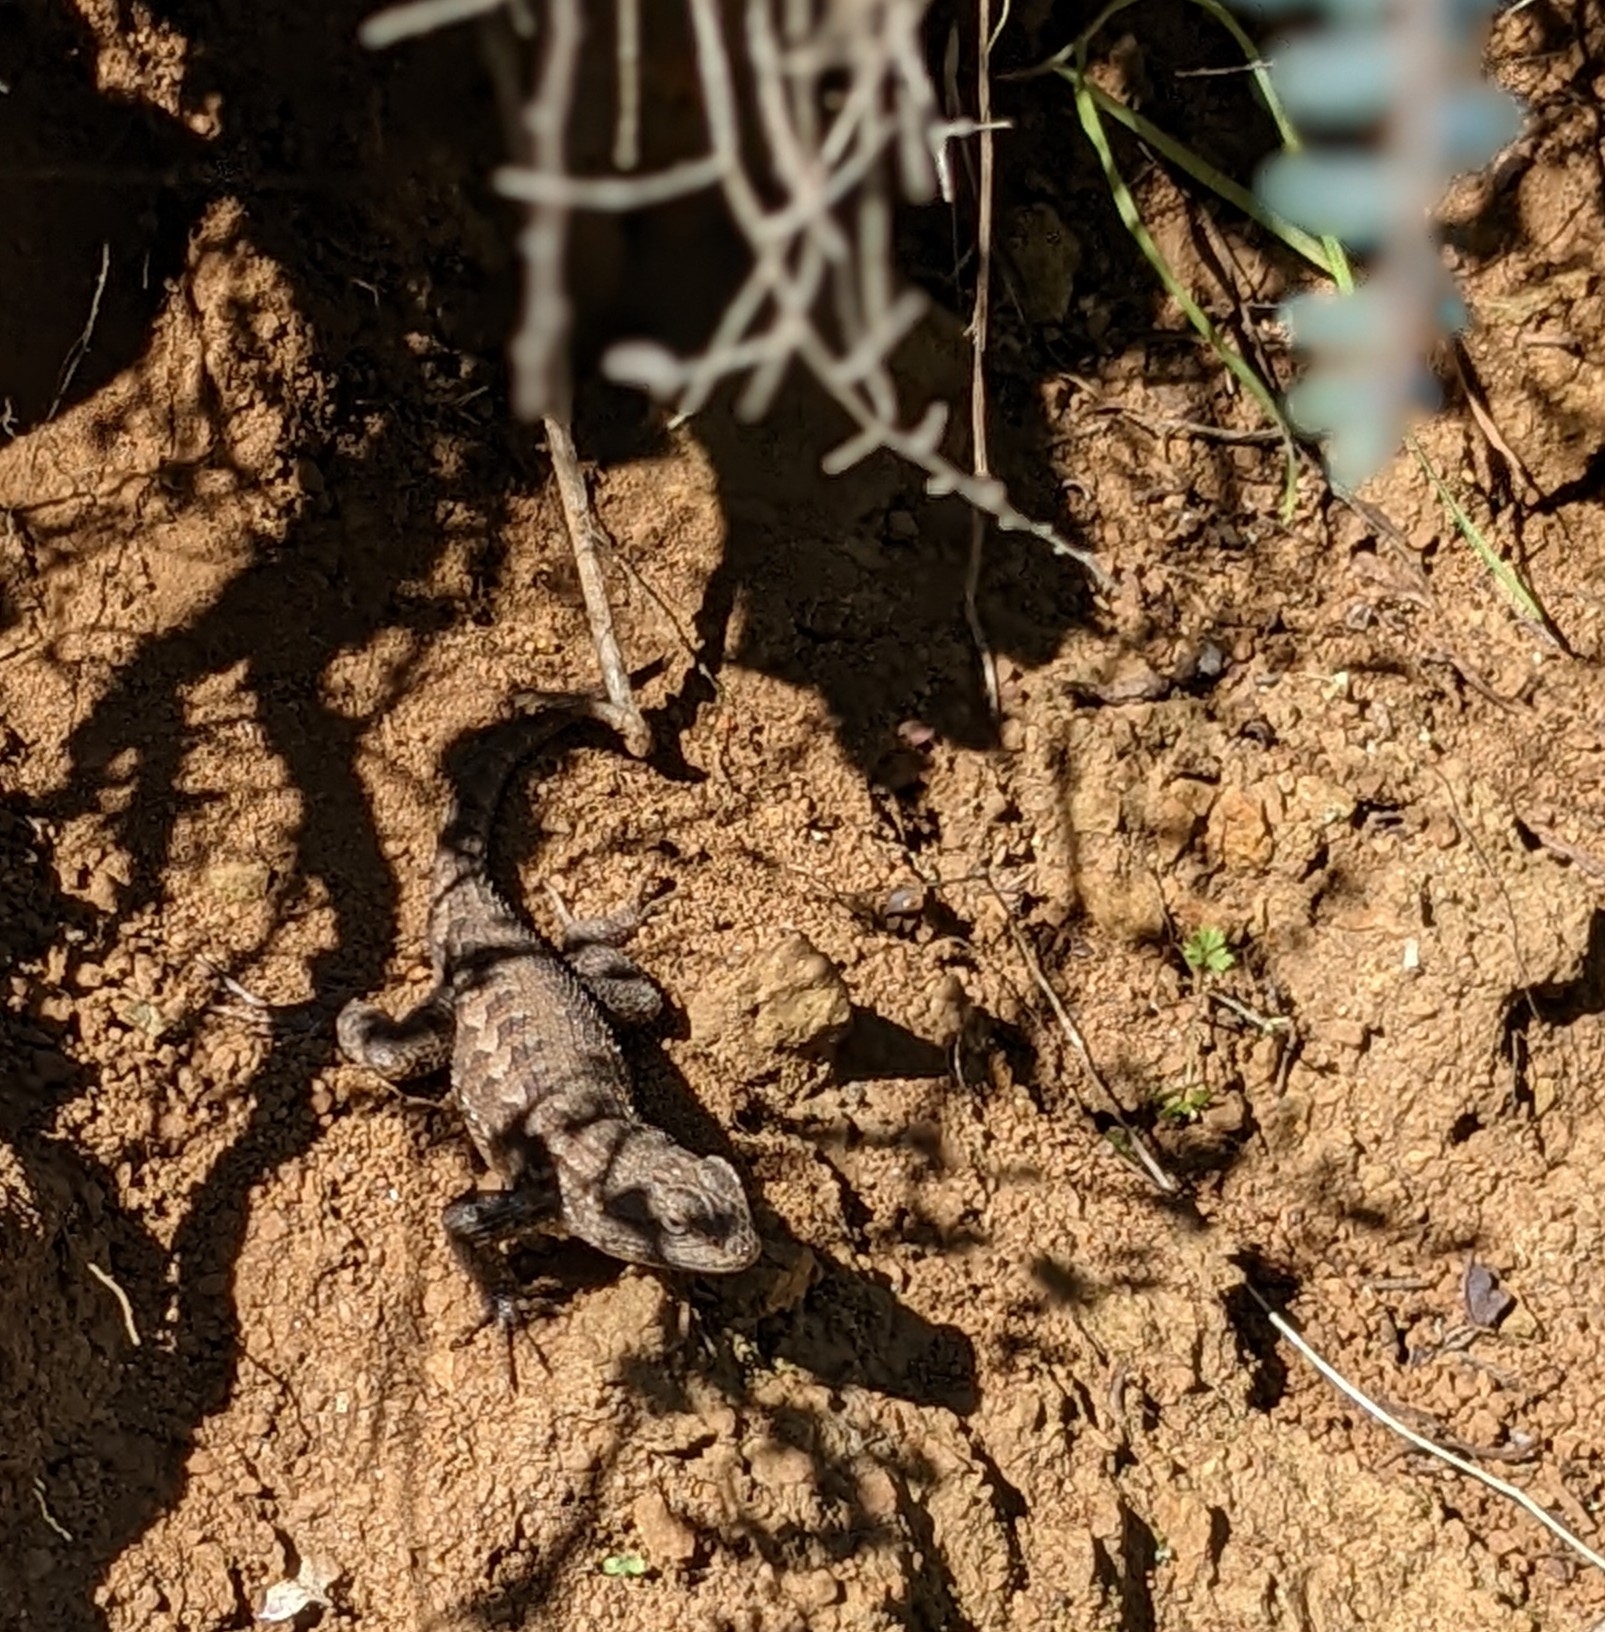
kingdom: Animalia
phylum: Chordata
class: Squamata
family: Phrynosomatidae
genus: Sceloporus
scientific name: Sceloporus occidentalis
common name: Western fence lizard
